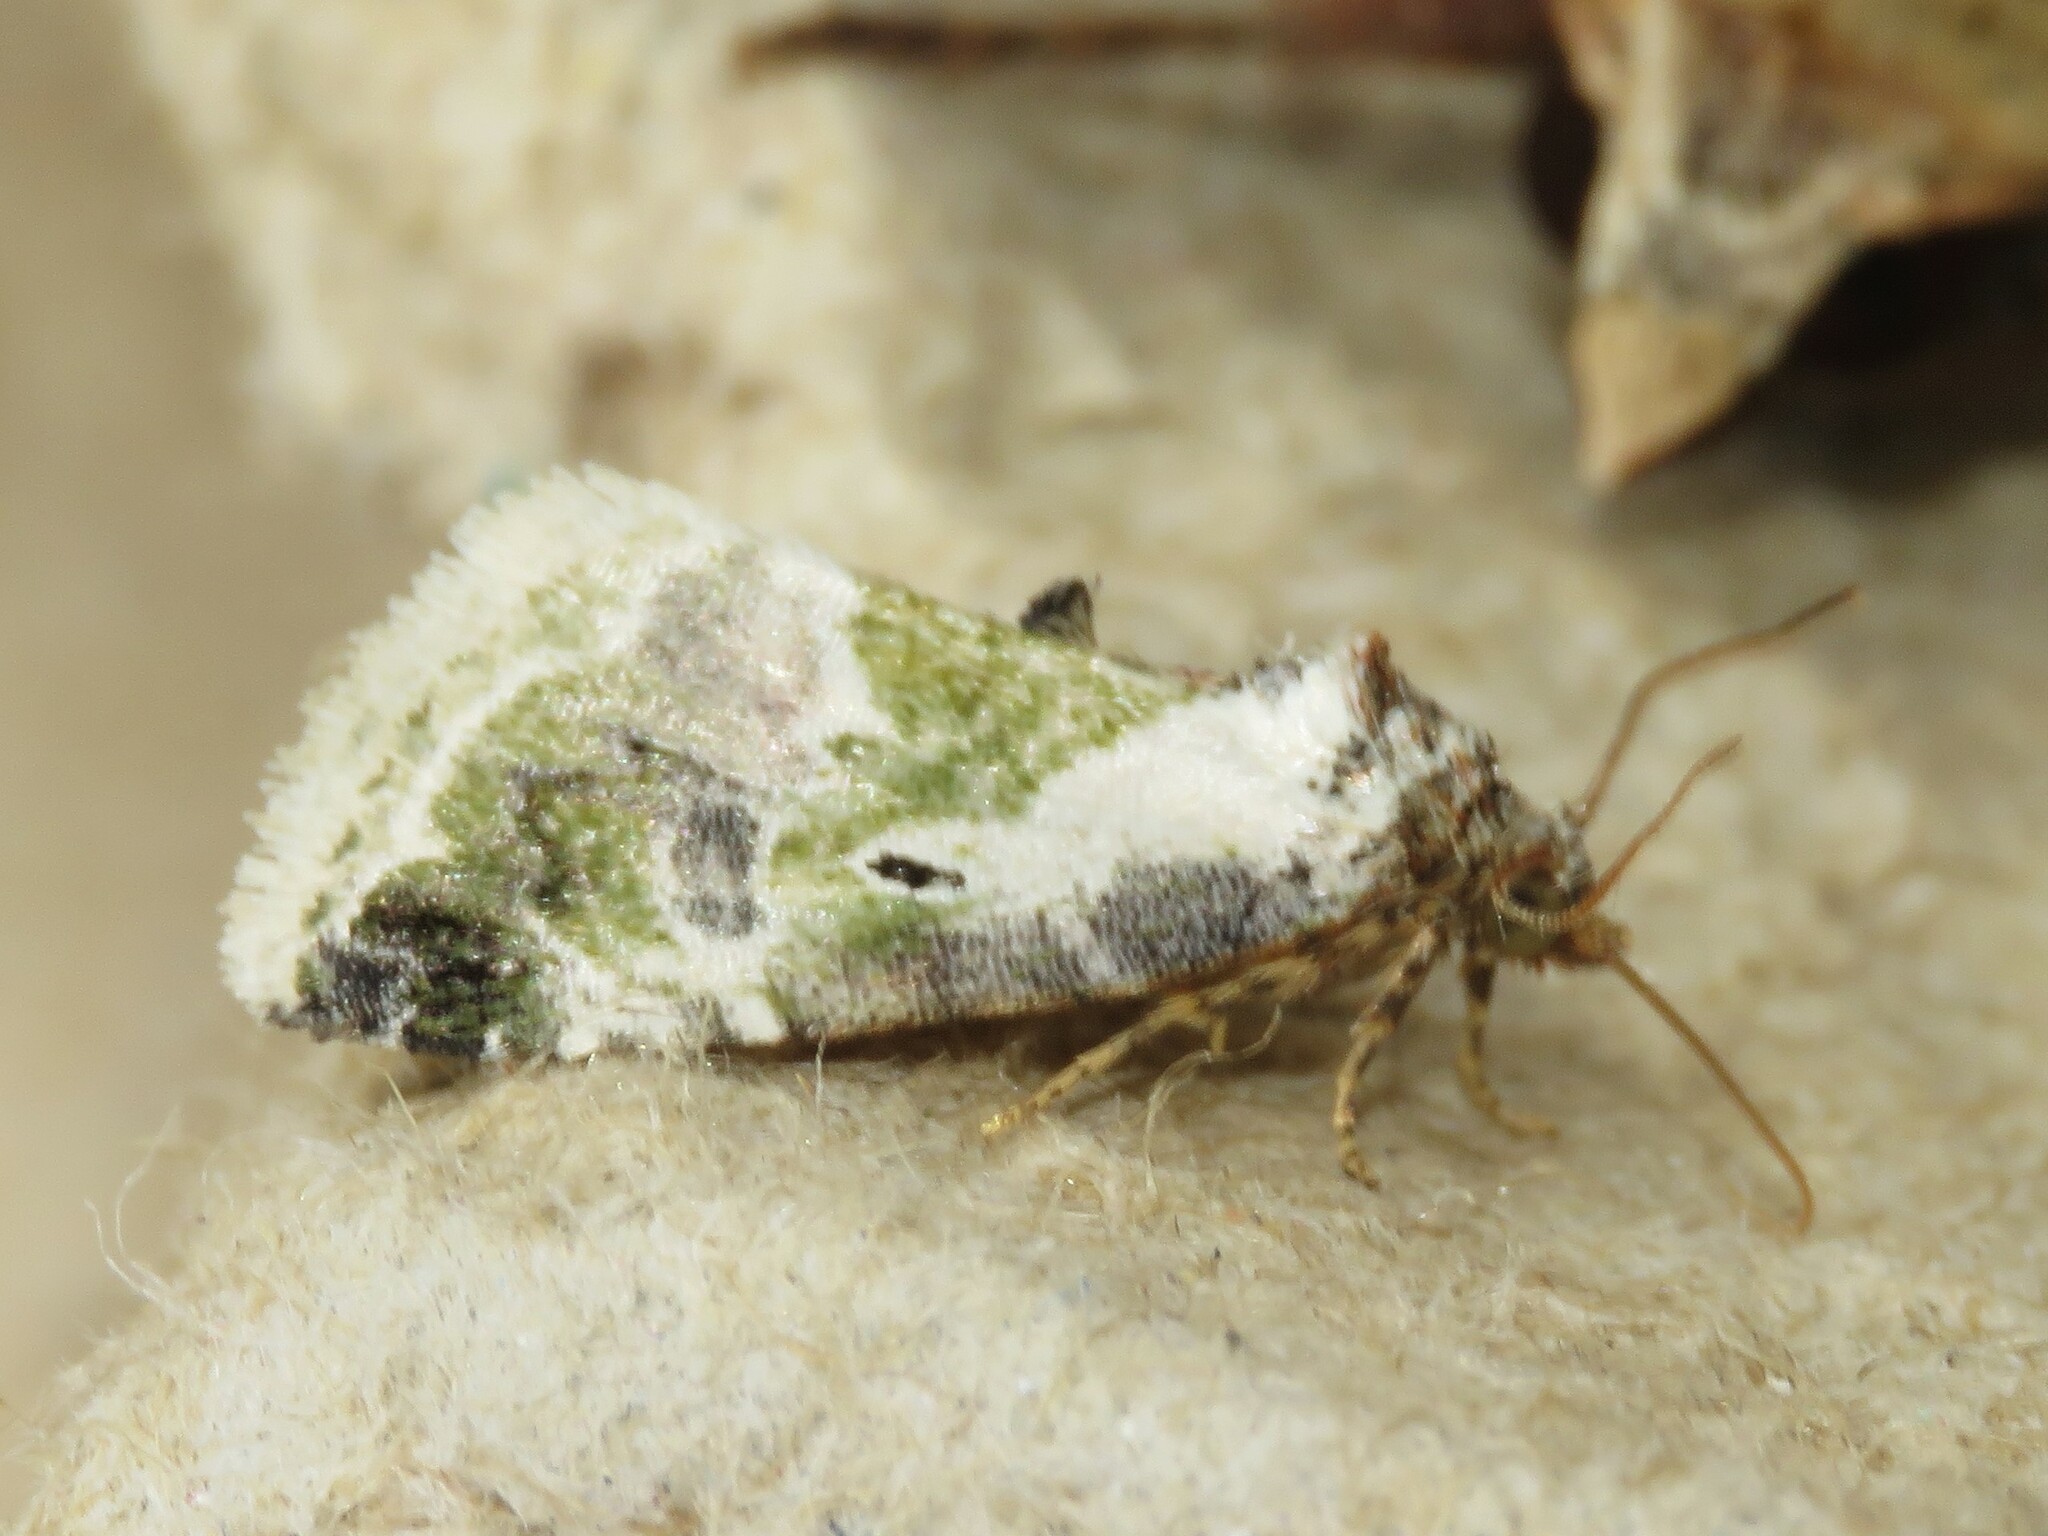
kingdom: Animalia
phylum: Arthropoda
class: Insecta
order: Lepidoptera
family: Noctuidae
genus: Maliattha
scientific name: Maliattha synochitis
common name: Black-dotted glyph
